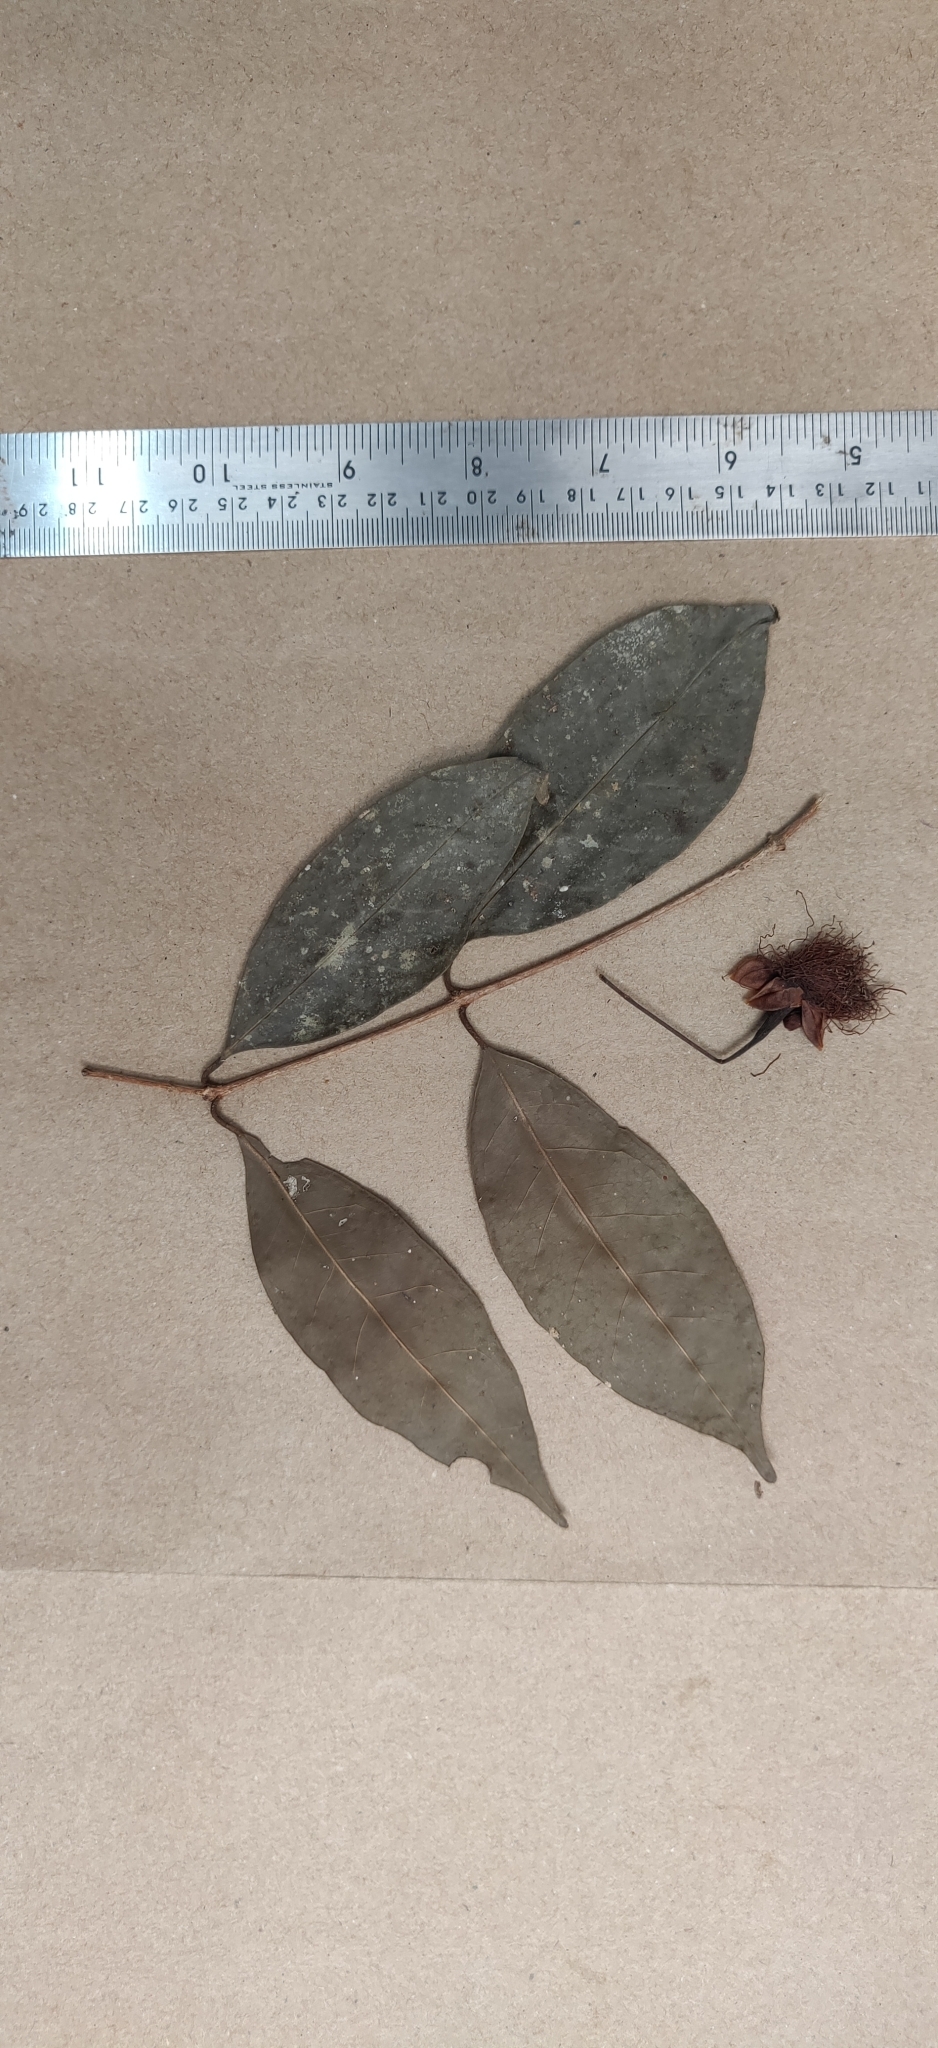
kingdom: Plantae
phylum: Tracheophyta
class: Magnoliopsida
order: Myrtales
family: Myrtaceae
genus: Syzygium
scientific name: Syzygium laetum
